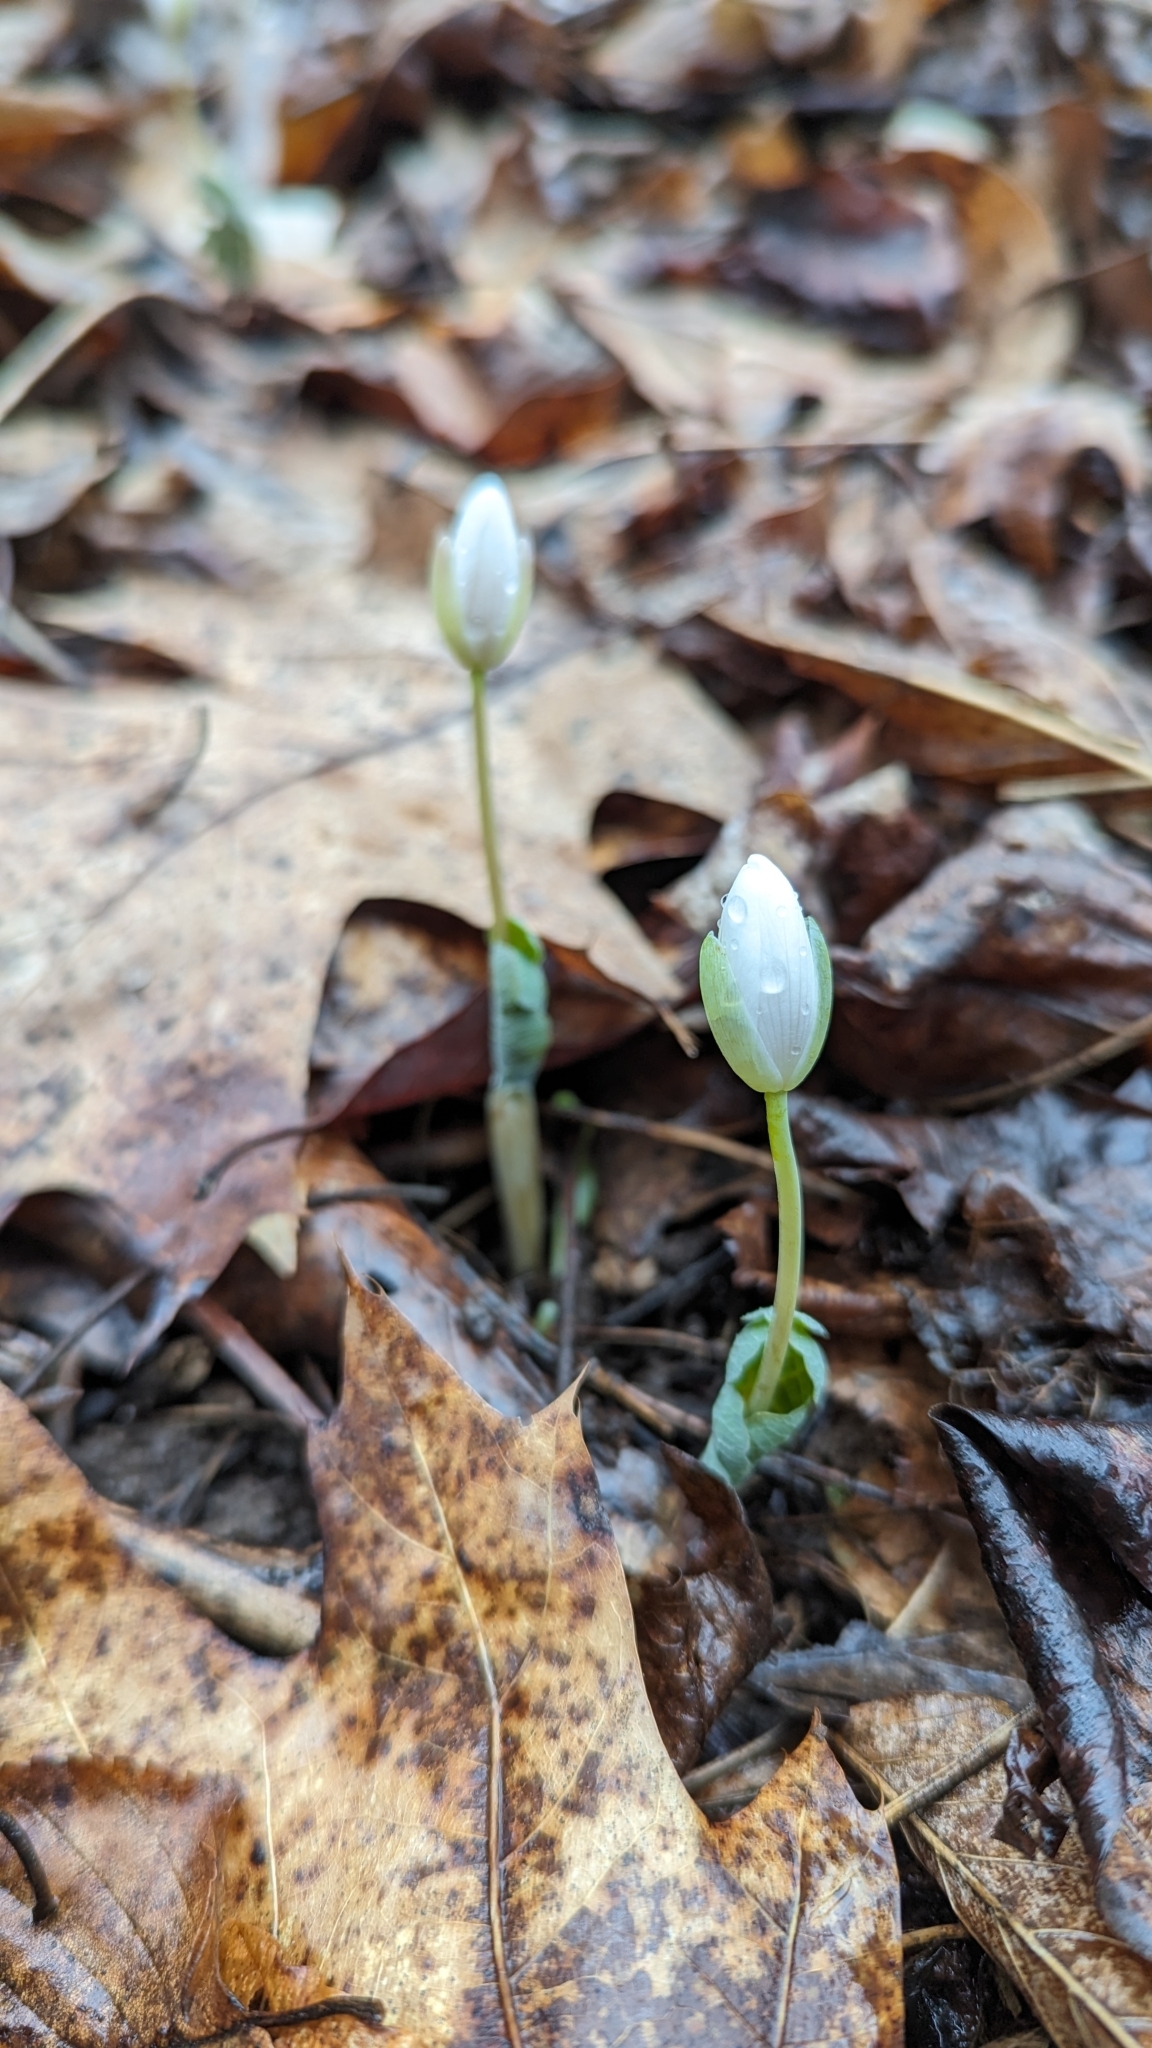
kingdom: Plantae
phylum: Tracheophyta
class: Magnoliopsida
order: Ranunculales
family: Papaveraceae
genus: Sanguinaria
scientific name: Sanguinaria canadensis
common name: Bloodroot
